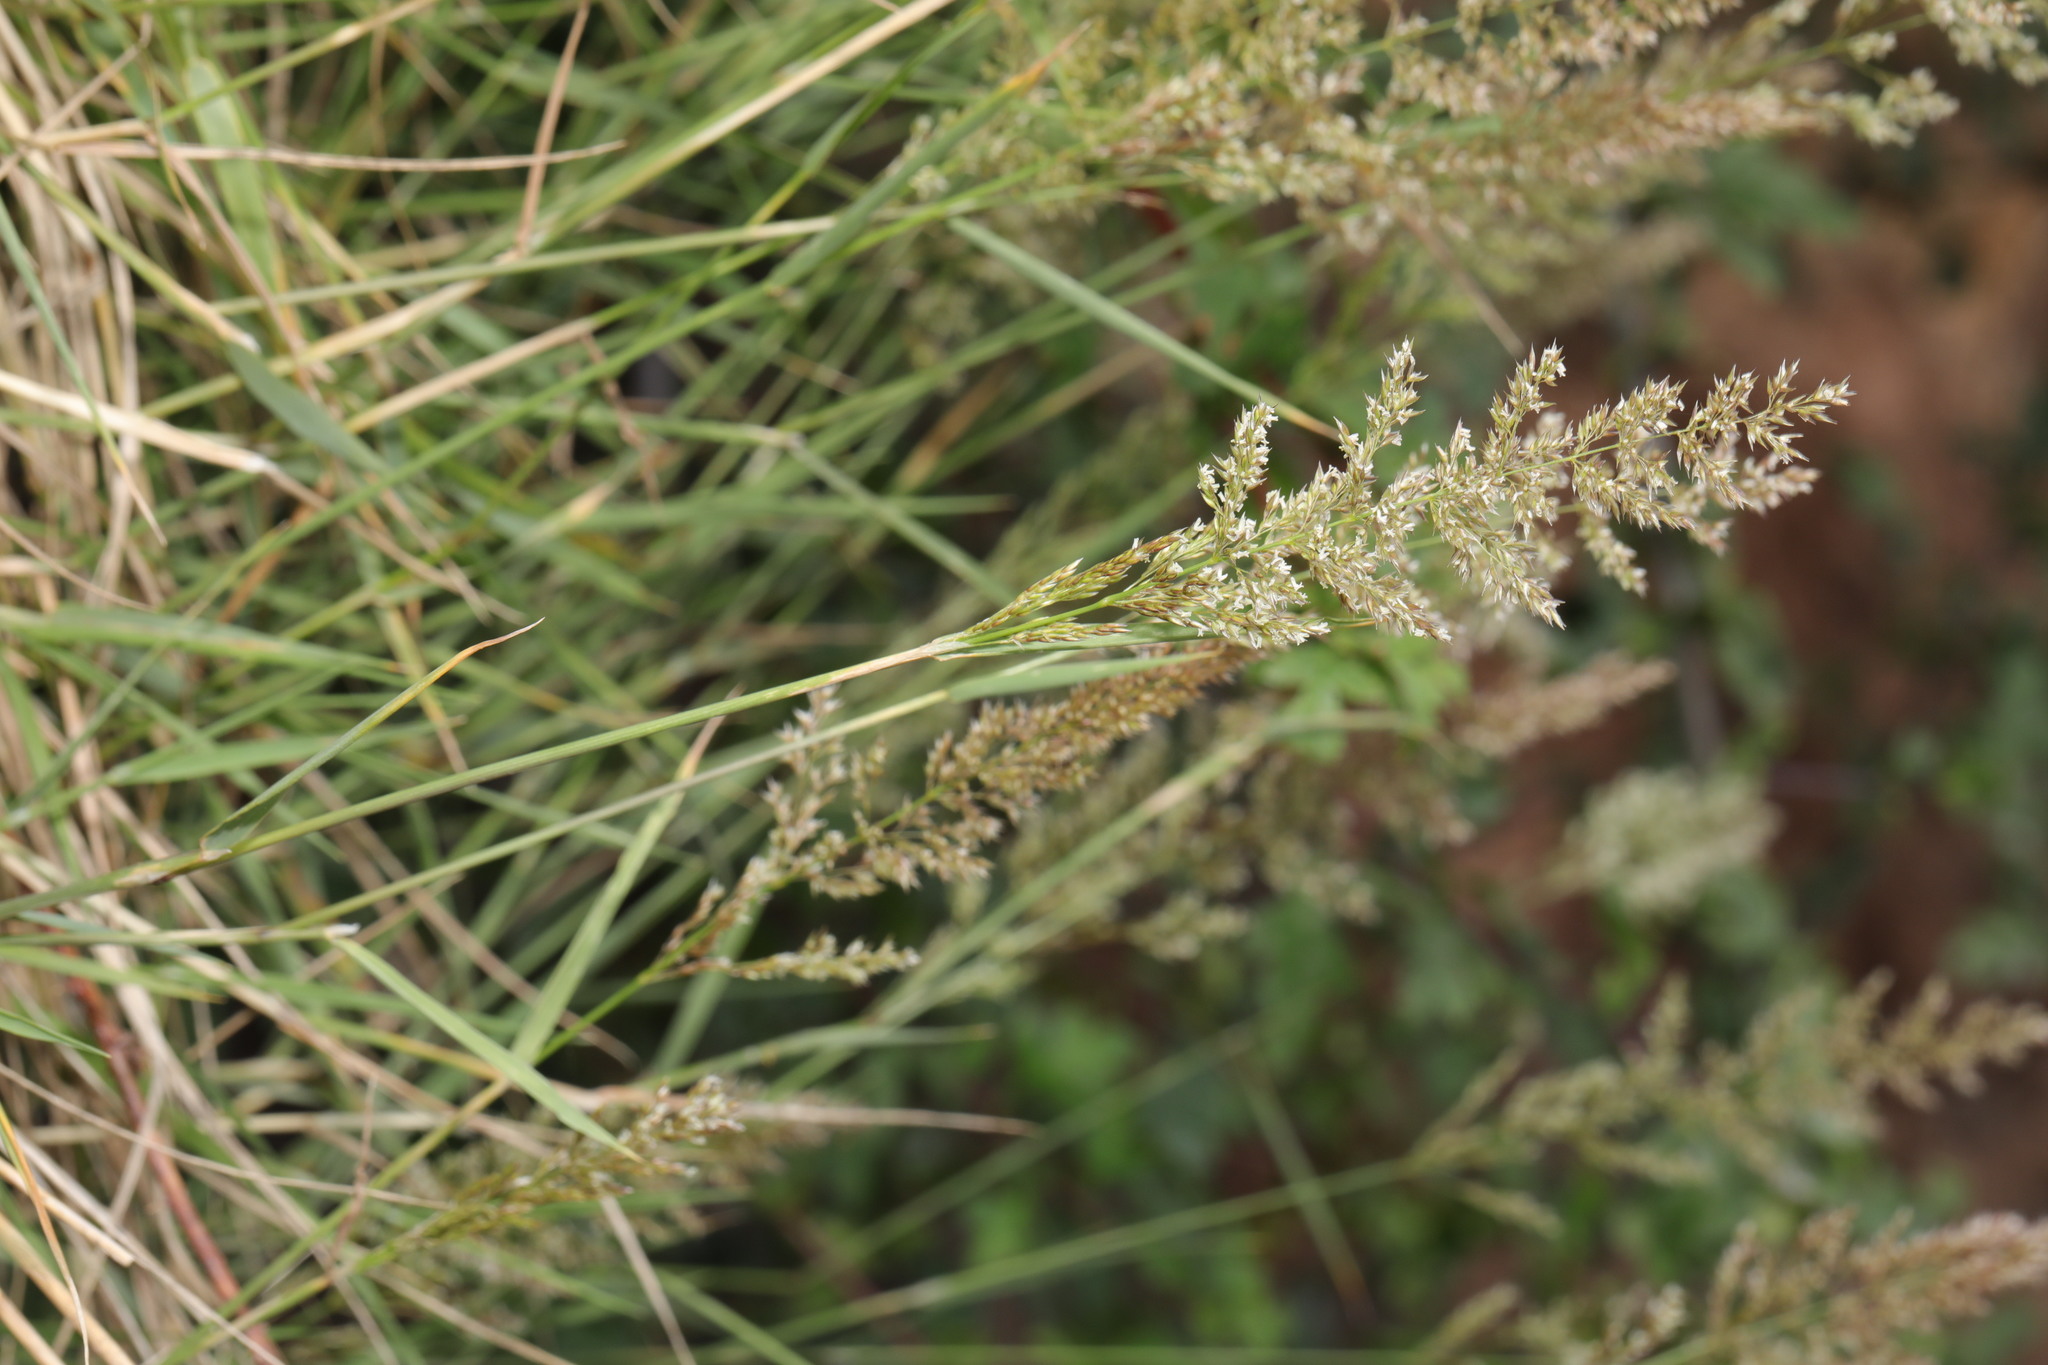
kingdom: Plantae
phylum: Tracheophyta
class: Liliopsida
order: Poales
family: Poaceae
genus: Polypogon
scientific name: Polypogon viridis
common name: Water bent
